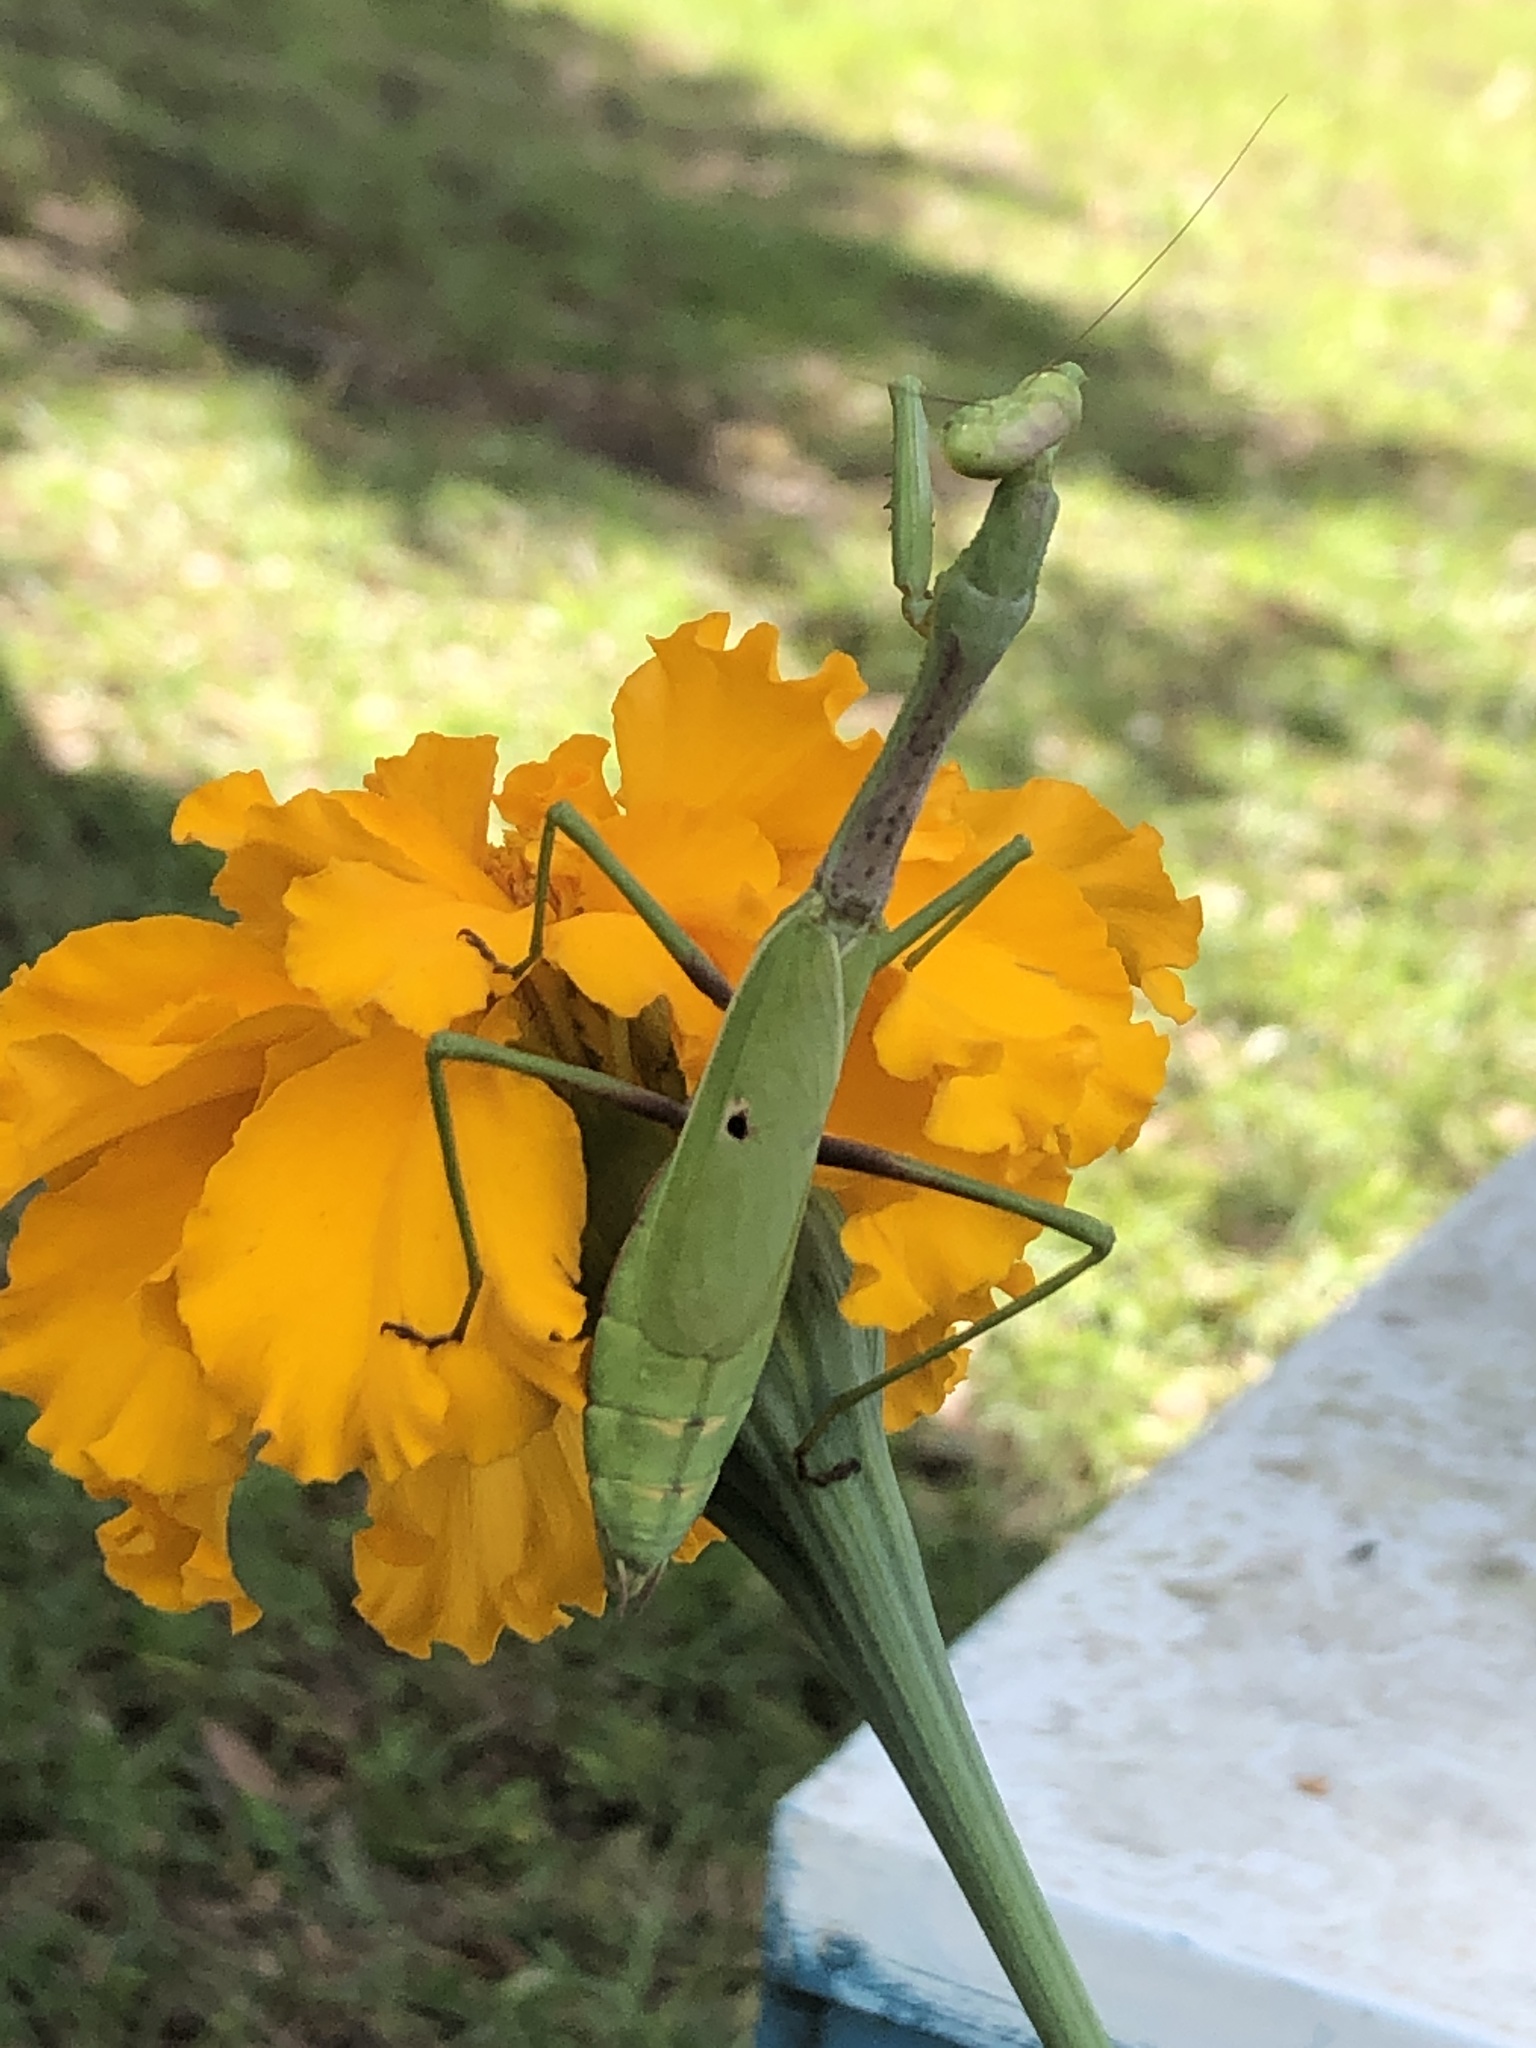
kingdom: Animalia
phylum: Arthropoda
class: Insecta
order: Mantodea
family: Mantidae
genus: Stagmomantis
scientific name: Stagmomantis carolina
